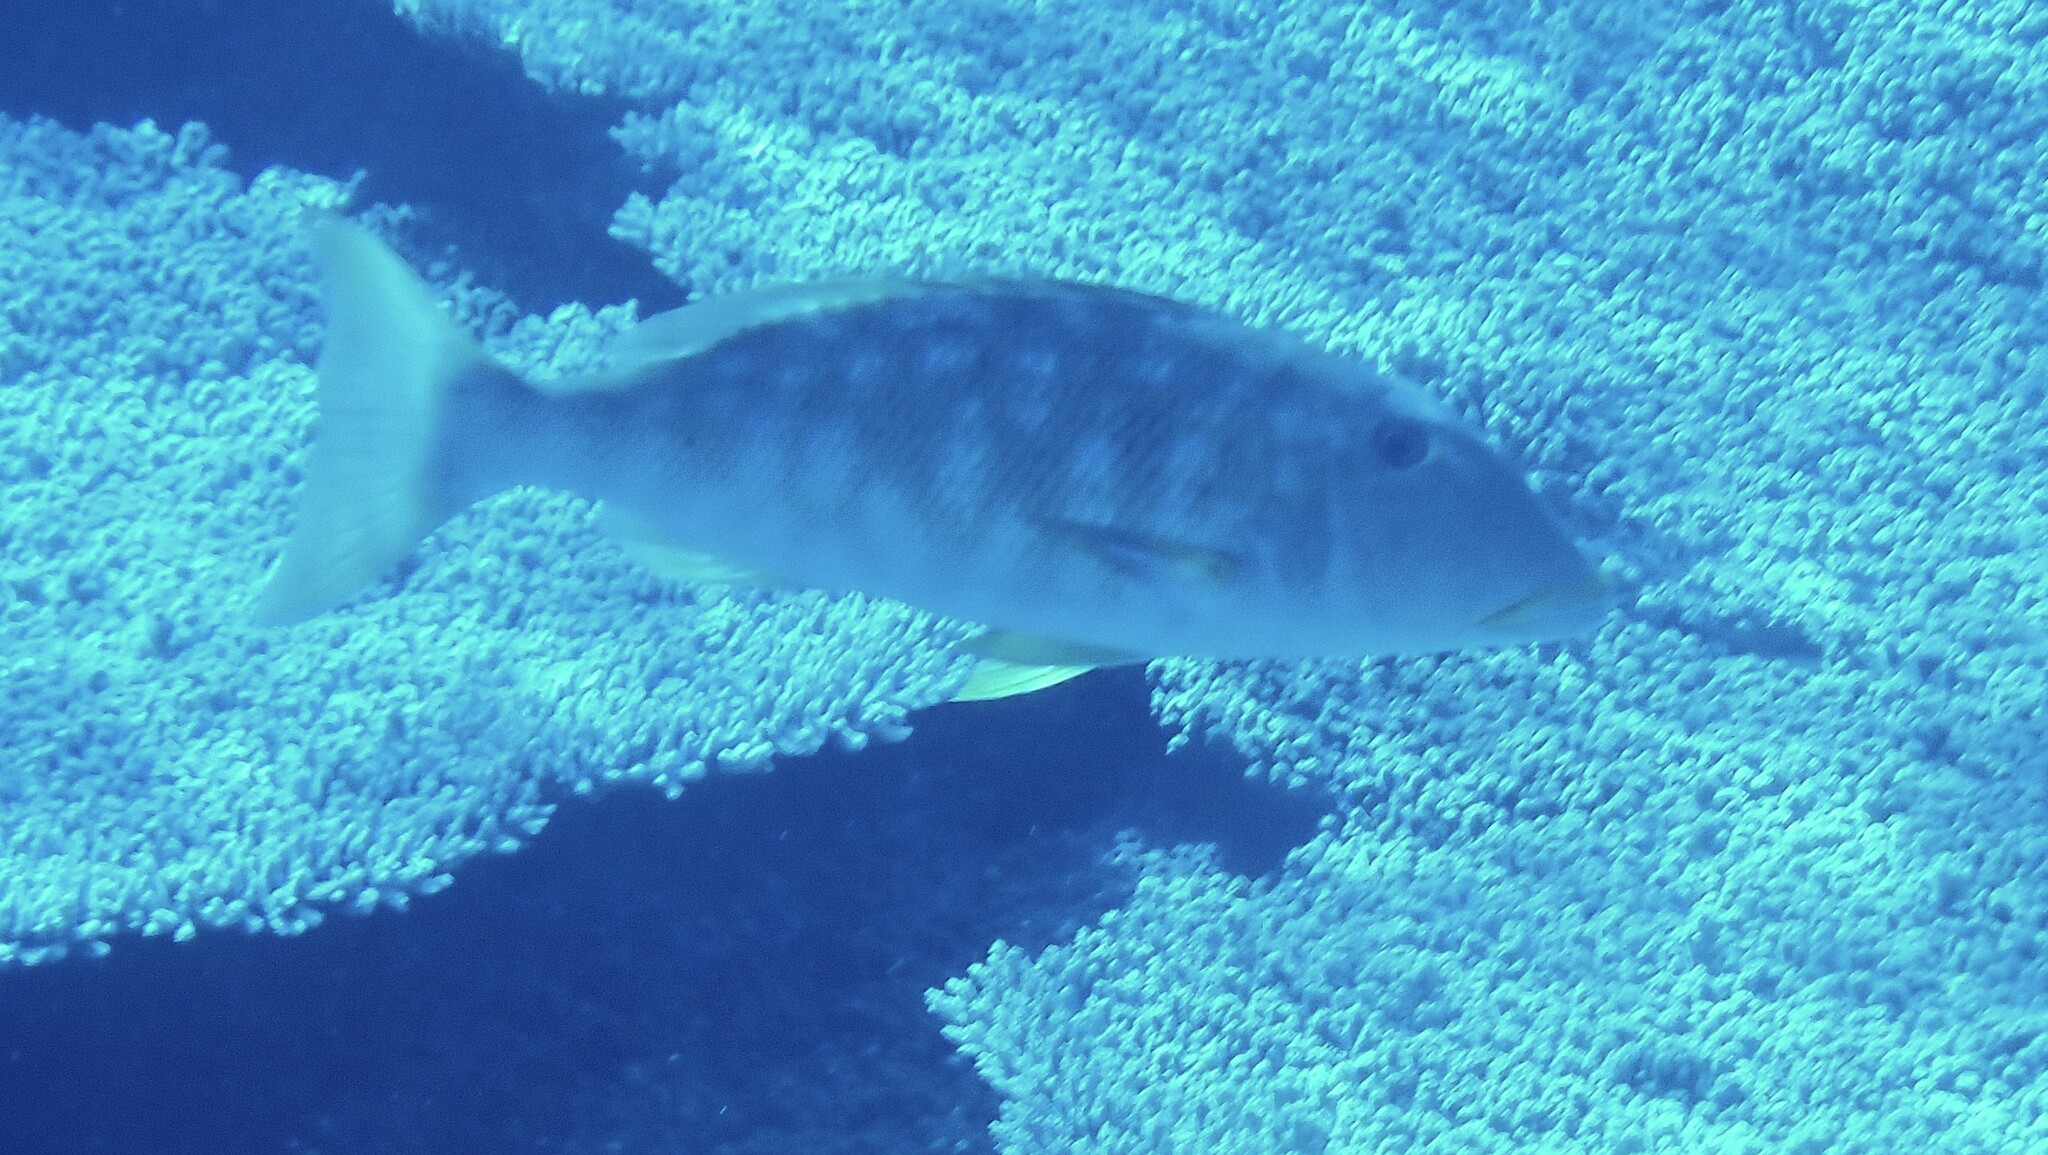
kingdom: Animalia
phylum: Chordata
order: Perciformes
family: Lethrinidae
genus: Lethrinus
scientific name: Lethrinus xanthochilus
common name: Yellowlip emperor
